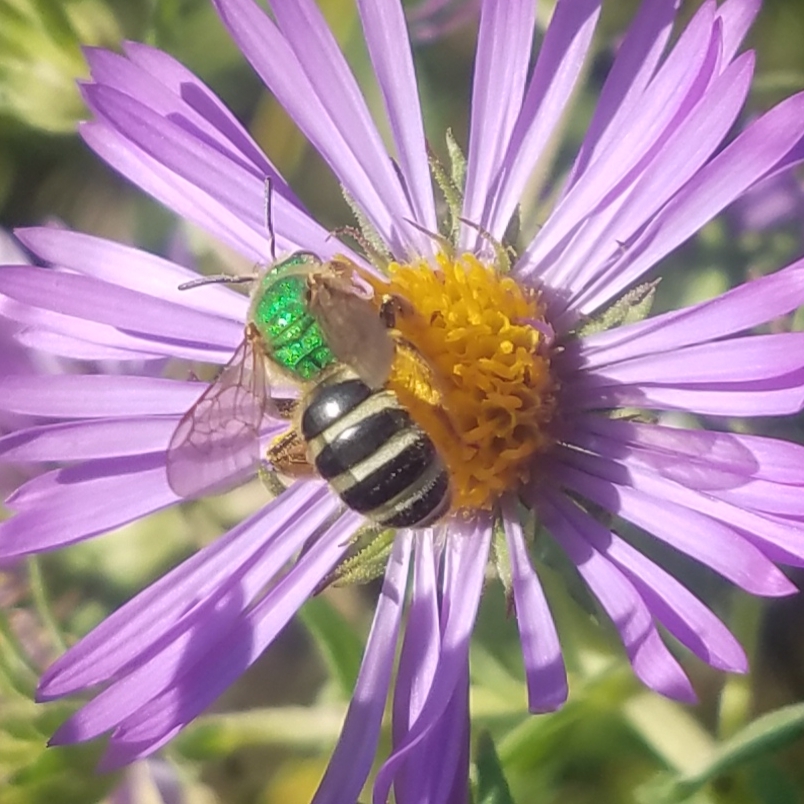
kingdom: Animalia
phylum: Arthropoda
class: Insecta
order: Hymenoptera
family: Halictidae
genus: Agapostemon
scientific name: Agapostemon virescens
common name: Bicolored striped sweat bee
